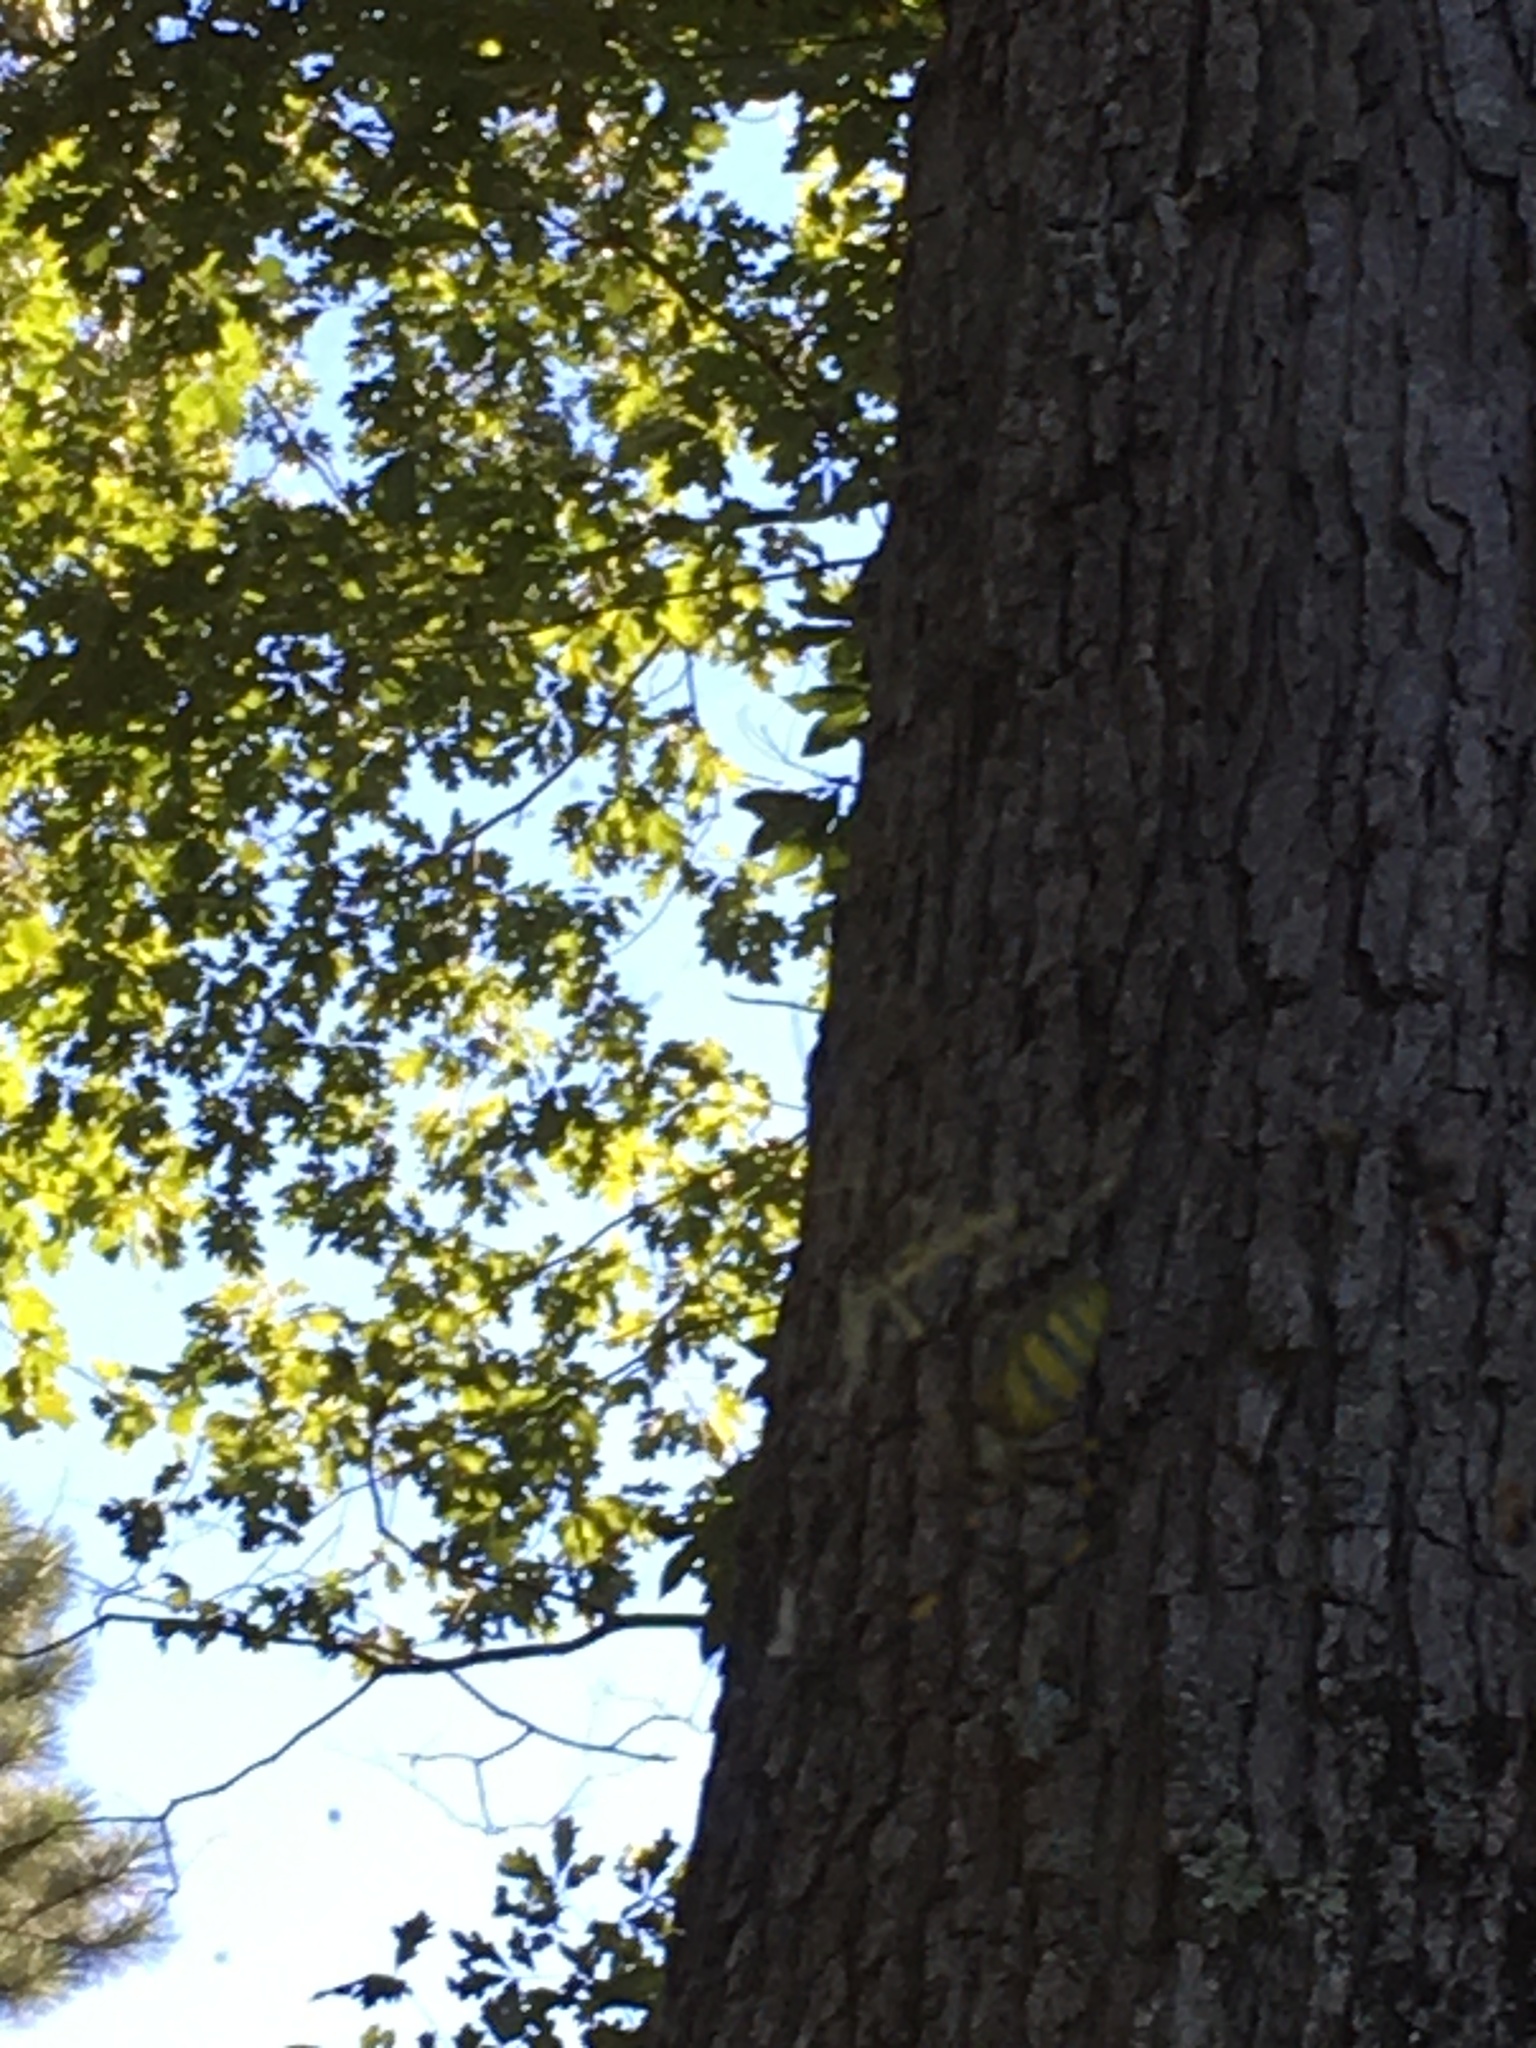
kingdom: Animalia
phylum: Arthropoda
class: Arachnida
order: Araneae
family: Araneidae
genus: Trichonephila
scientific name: Trichonephila clavata
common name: Jorō spider
